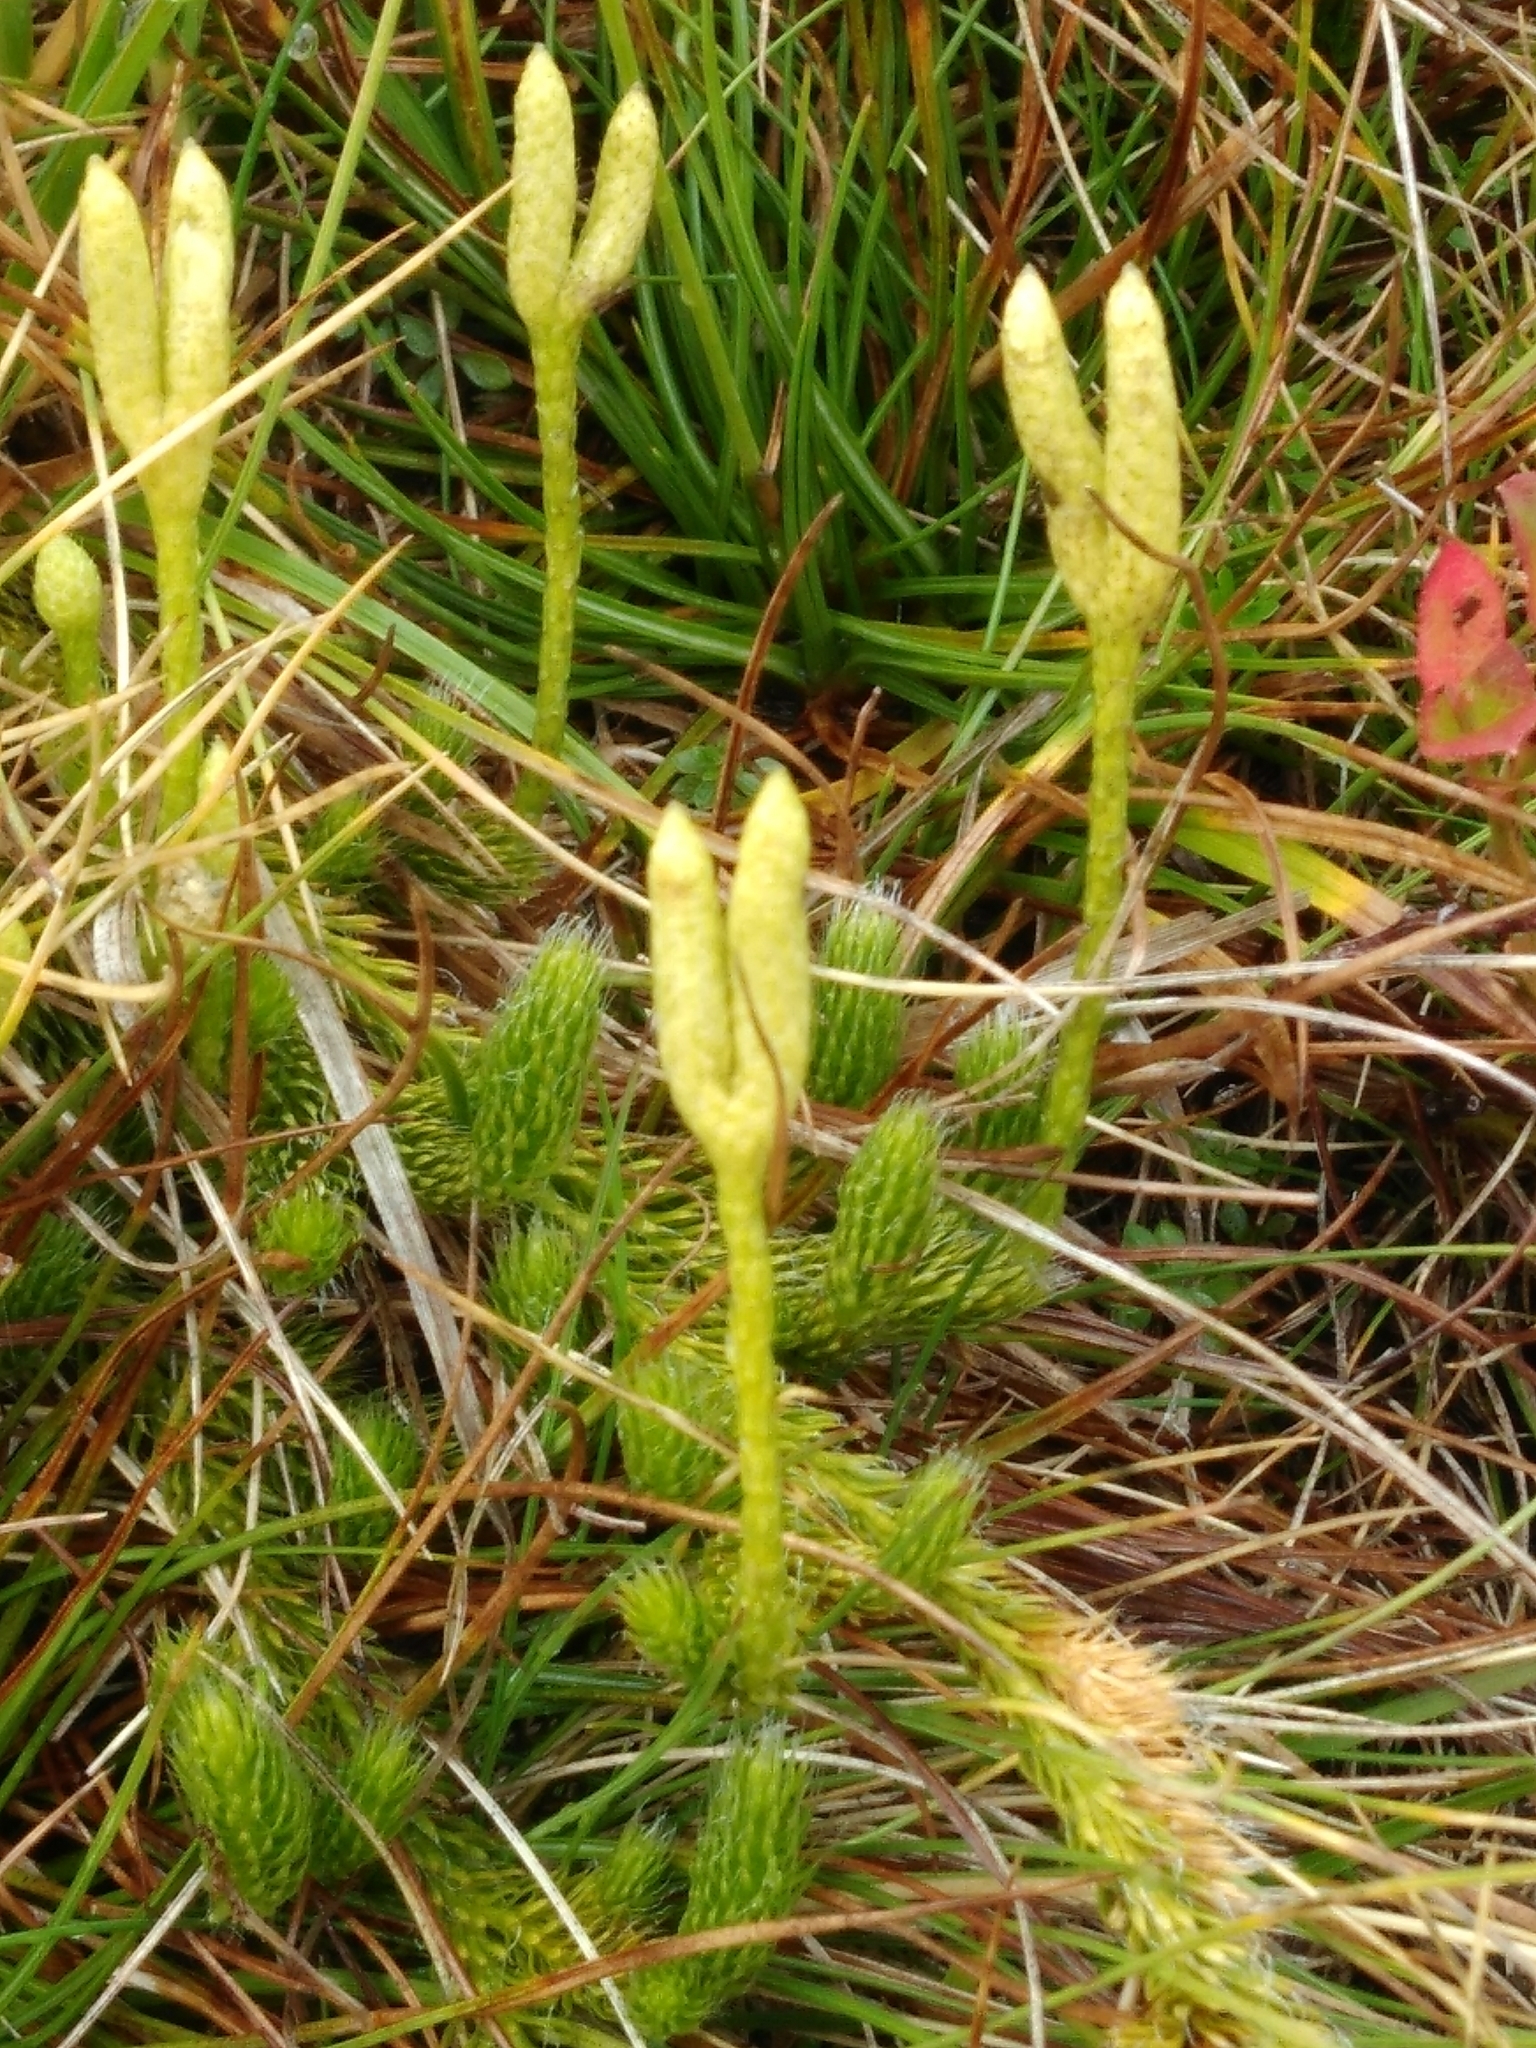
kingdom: Plantae
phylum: Tracheophyta
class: Lycopodiopsida
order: Lycopodiales
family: Lycopodiaceae
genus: Lycopodium
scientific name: Lycopodium clavatum
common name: Stag's-horn clubmoss
